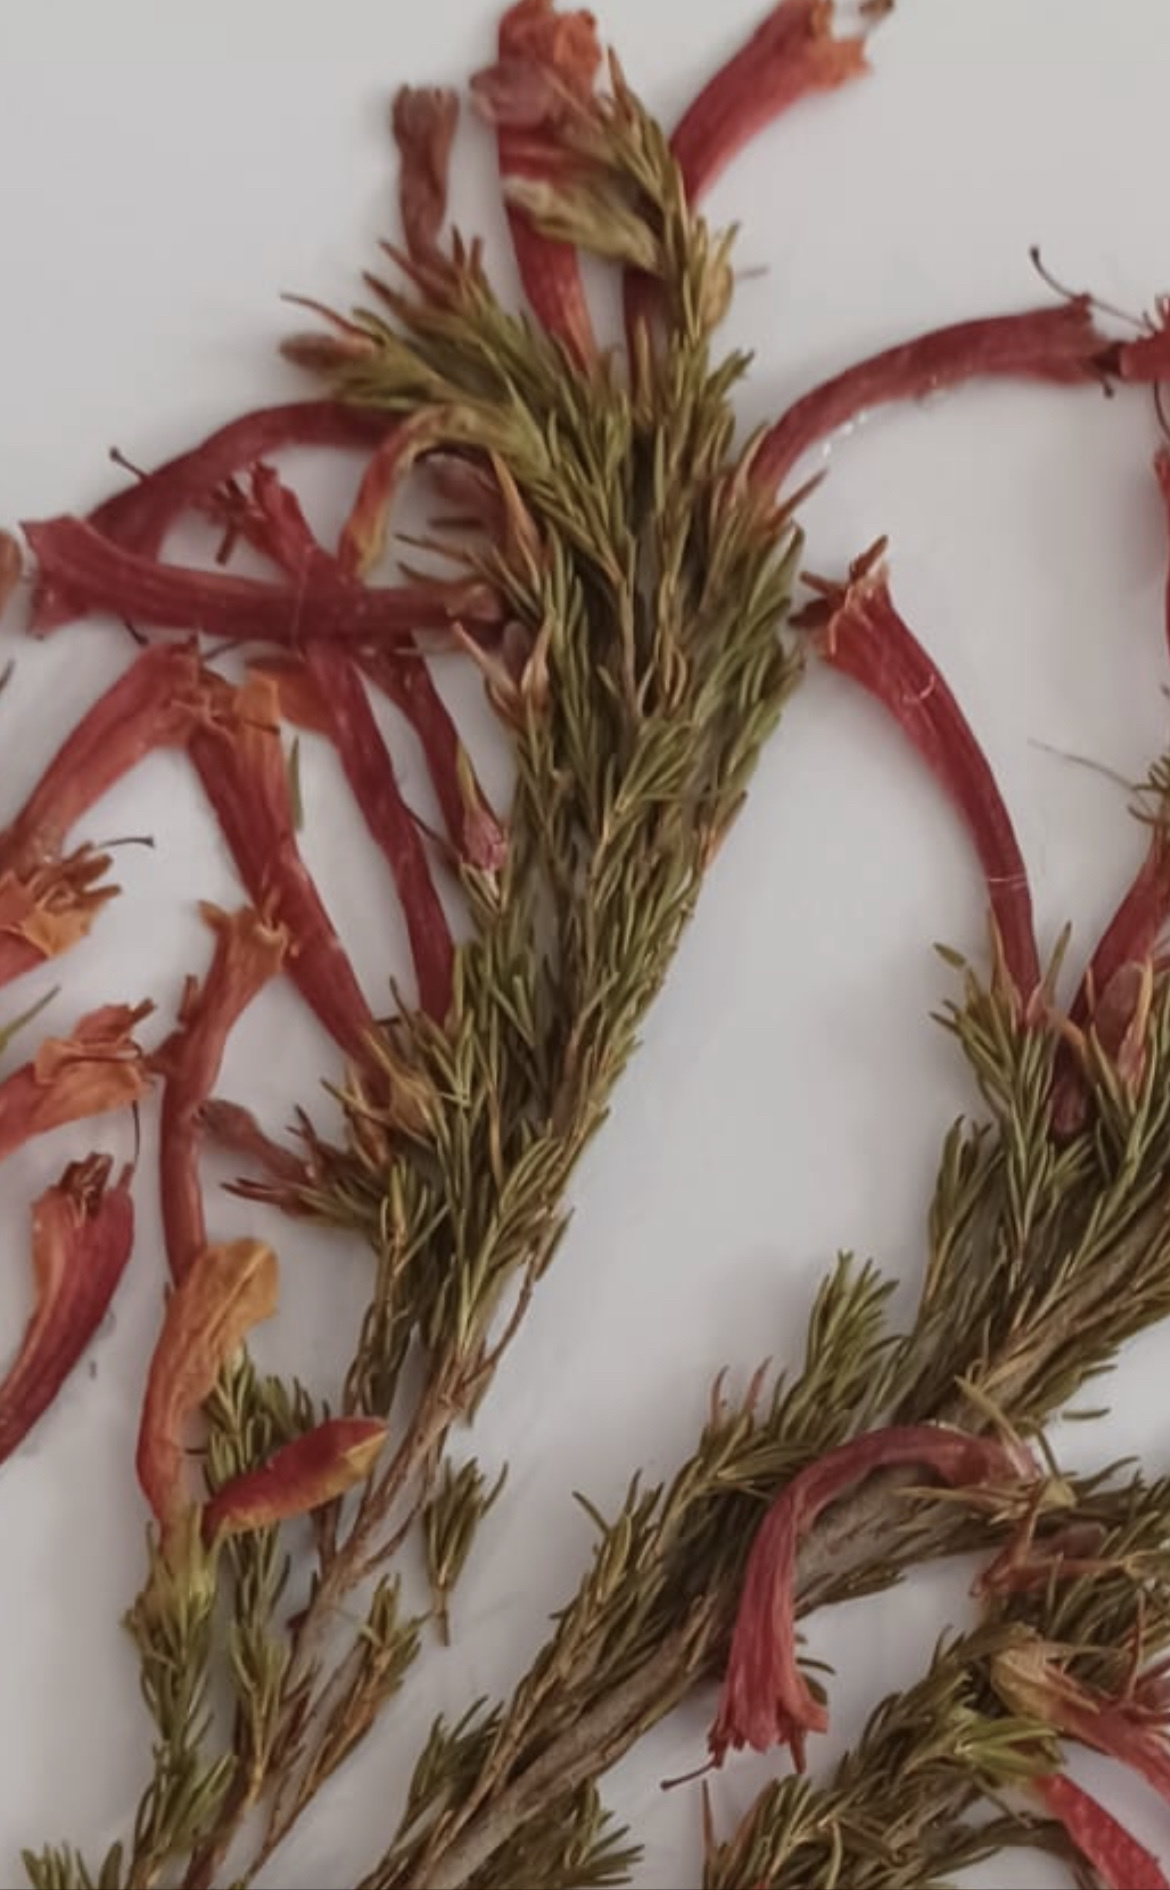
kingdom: Plantae
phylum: Tracheophyta
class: Magnoliopsida
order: Ericales
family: Ericaceae
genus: Erica
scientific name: Erica curviflora
